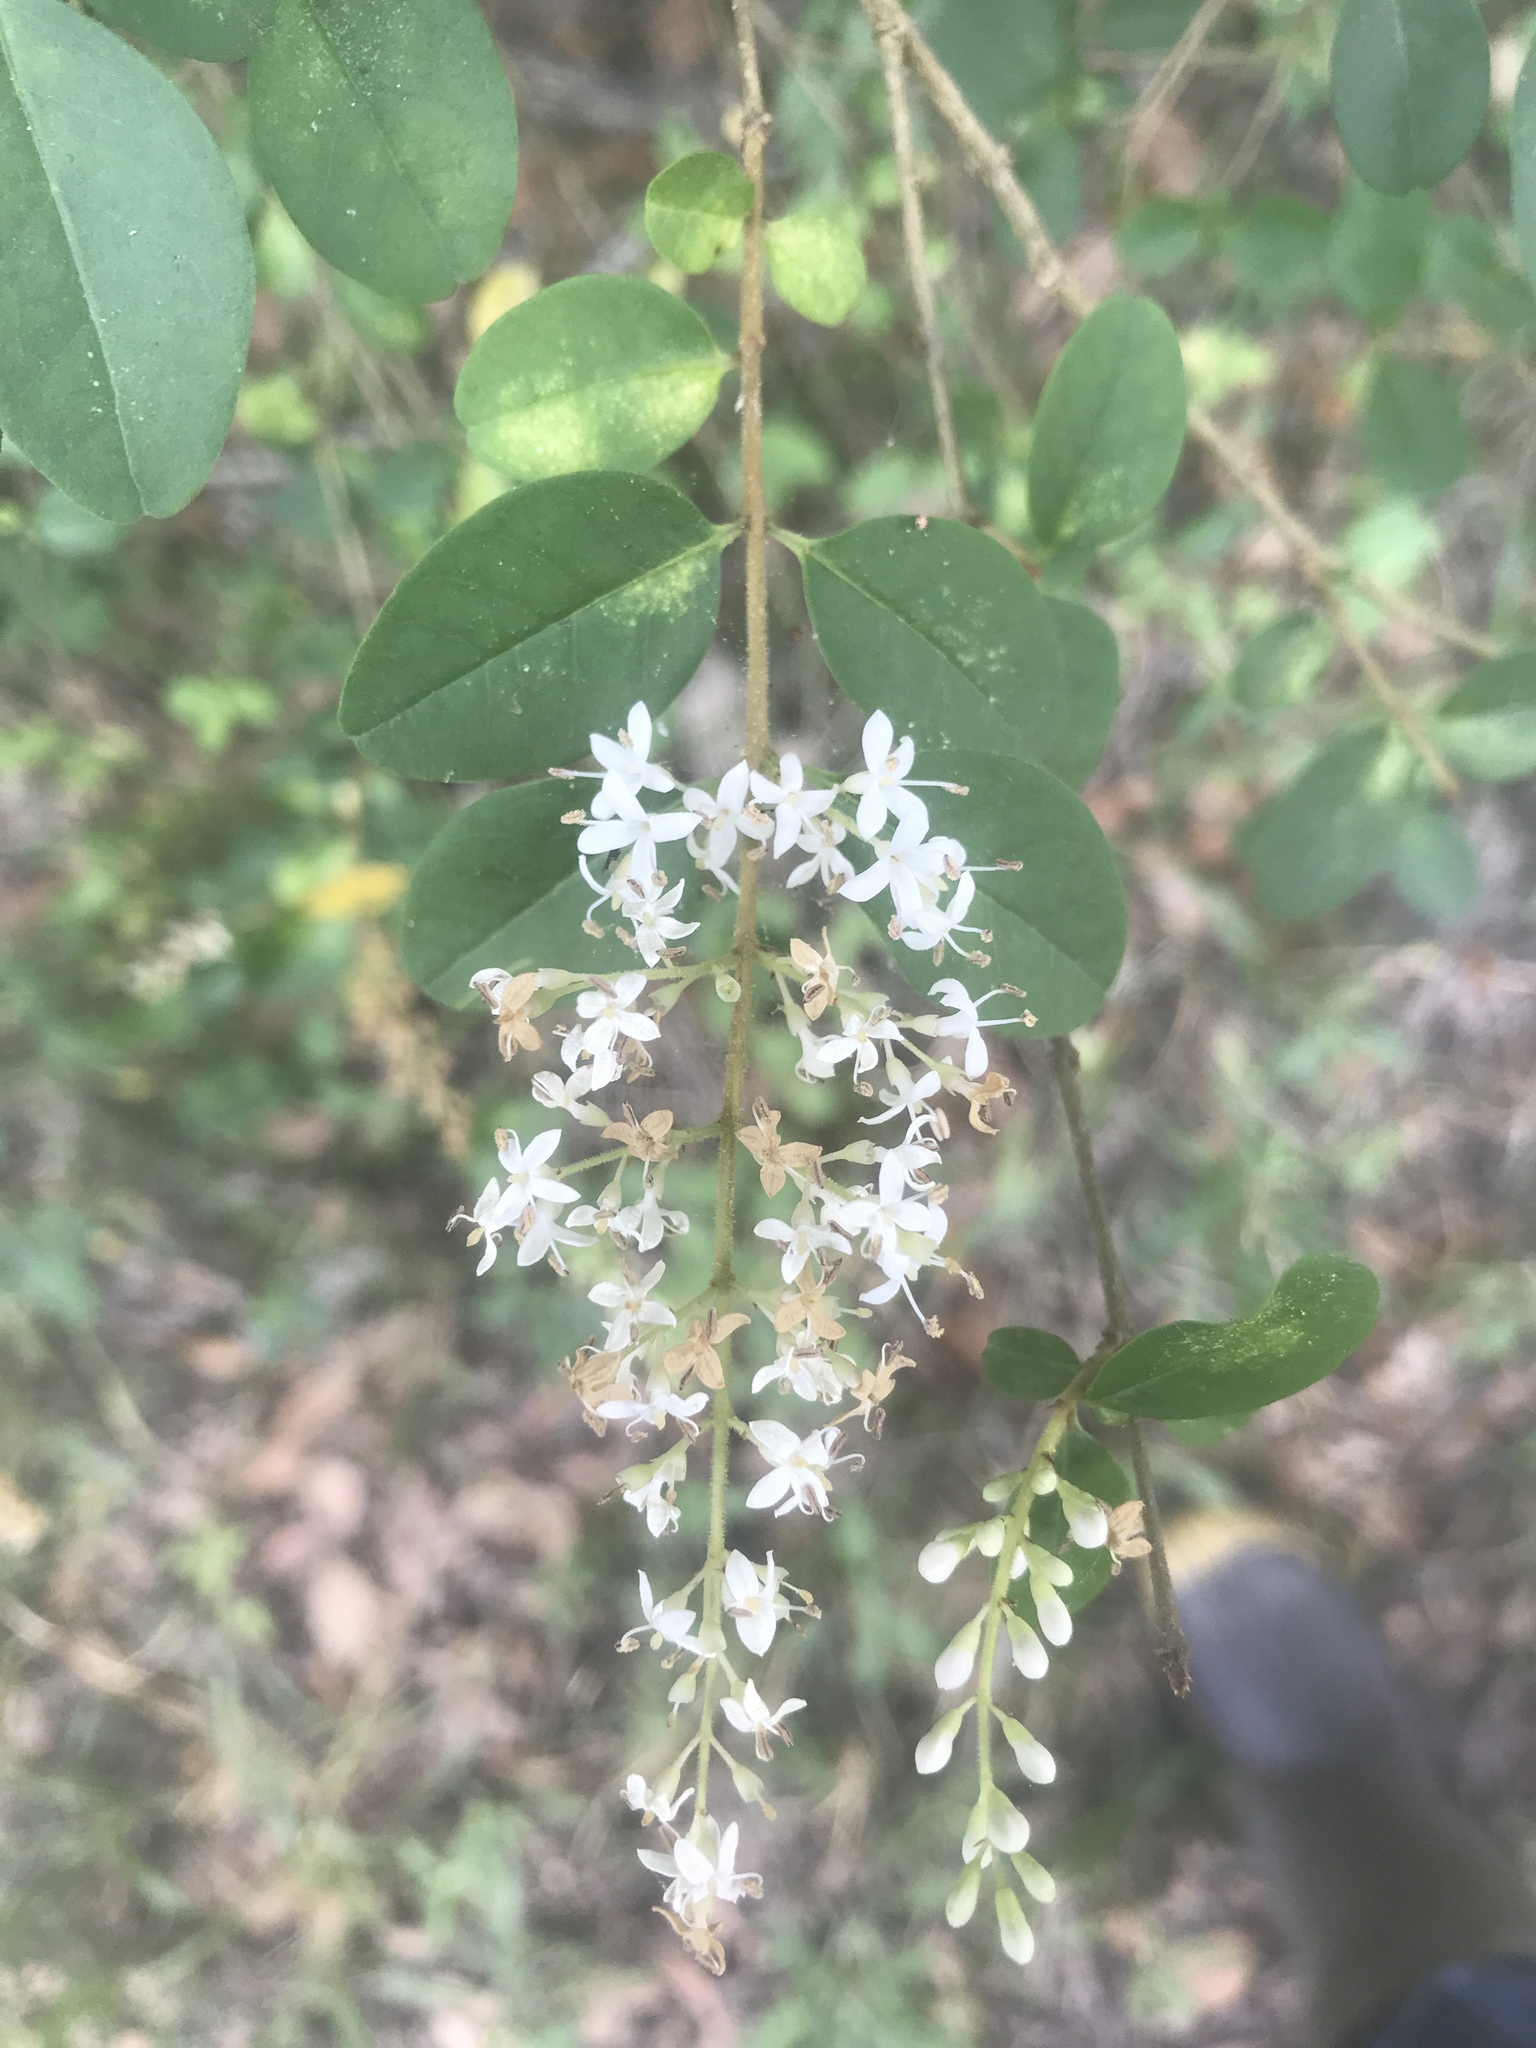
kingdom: Plantae
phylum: Tracheophyta
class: Magnoliopsida
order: Lamiales
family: Oleaceae
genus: Ligustrum
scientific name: Ligustrum sinense
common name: Chinese privet
